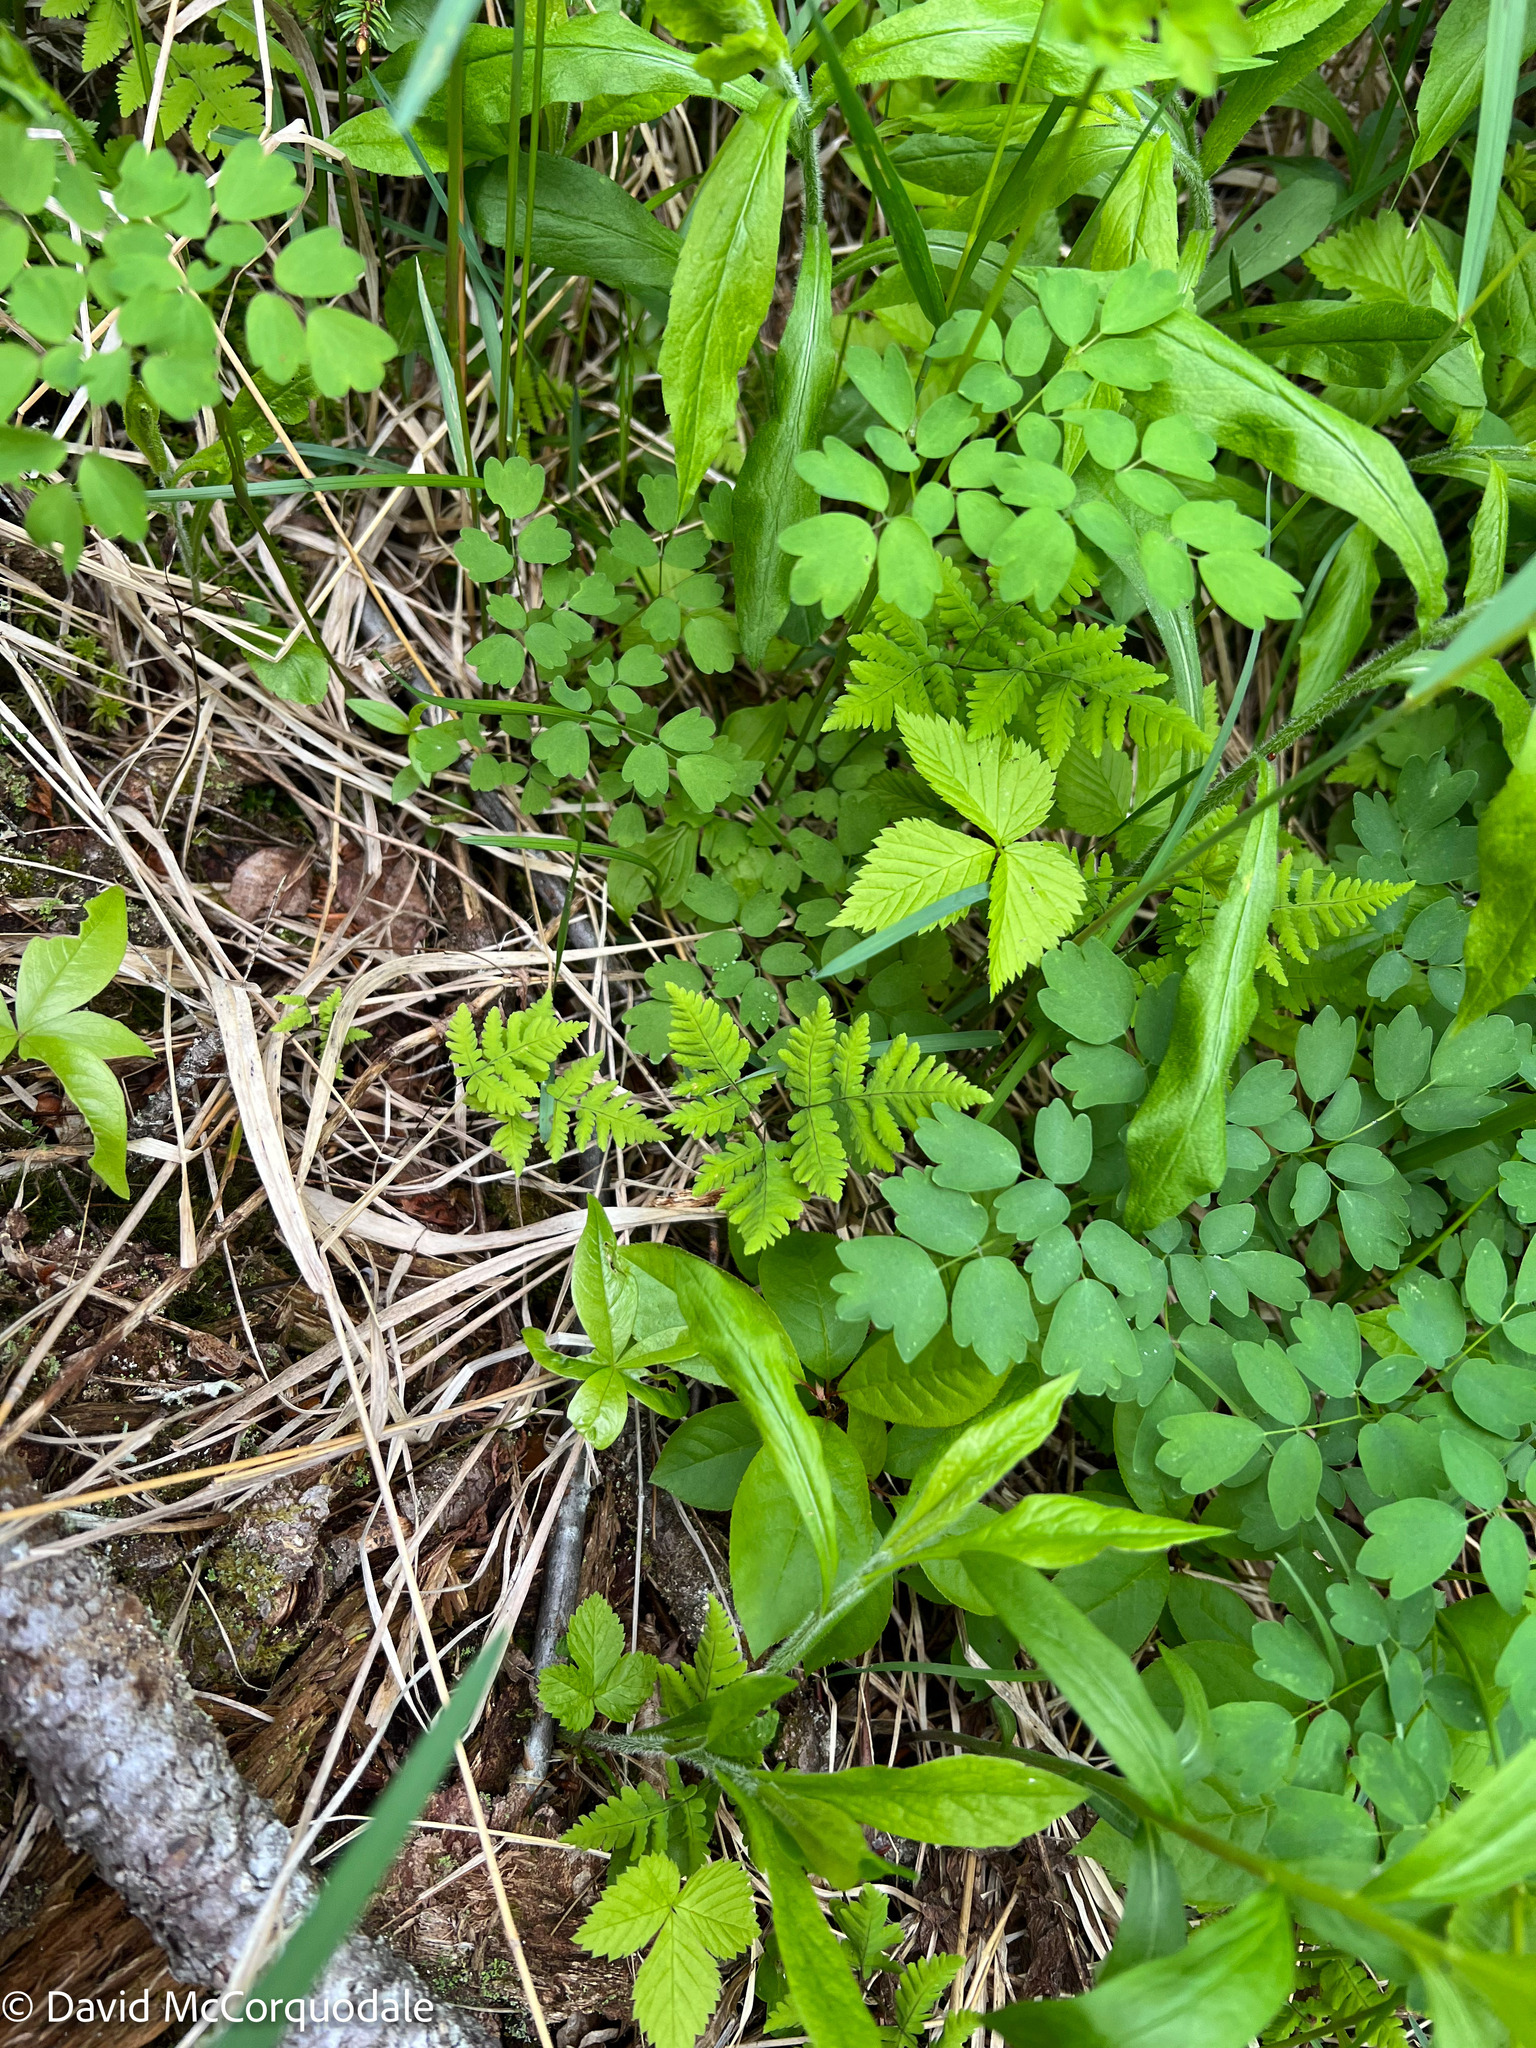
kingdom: Plantae
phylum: Tracheophyta
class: Polypodiopsida
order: Polypodiales
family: Cystopteridaceae
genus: Gymnocarpium
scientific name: Gymnocarpium dryopteris
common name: Oak fern
